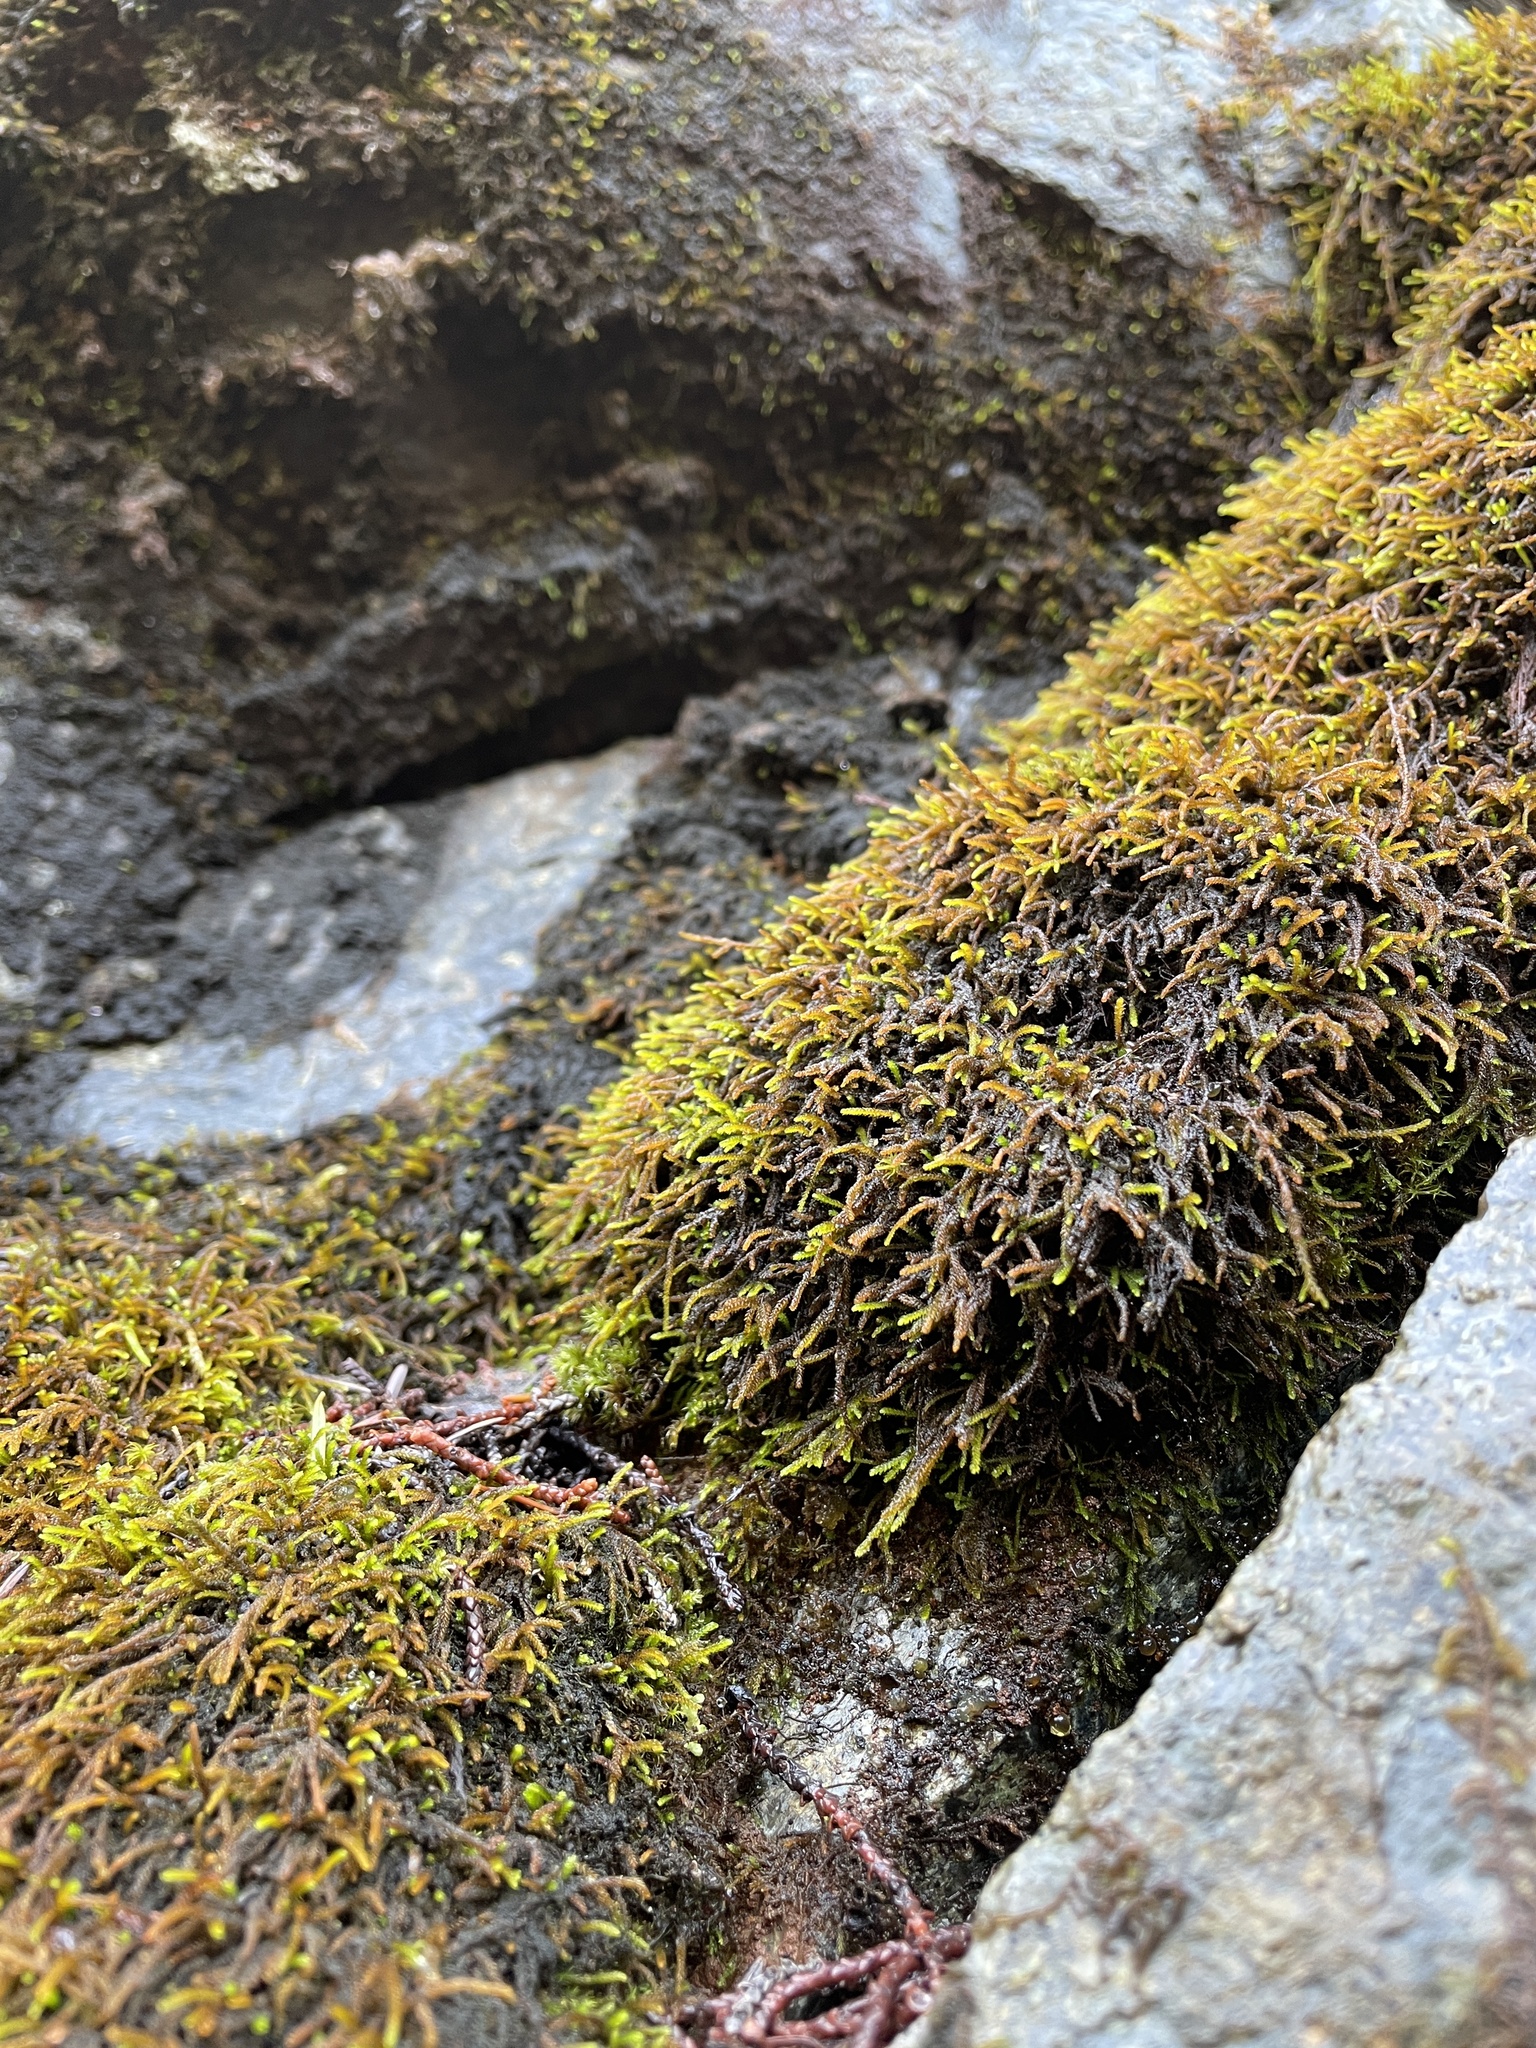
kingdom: Plantae
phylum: Bryophyta
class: Bryopsida
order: Hypnales
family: Pseudoleskeellaceae
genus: Pseudoleskeella
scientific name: Pseudoleskeella serpentinensis
